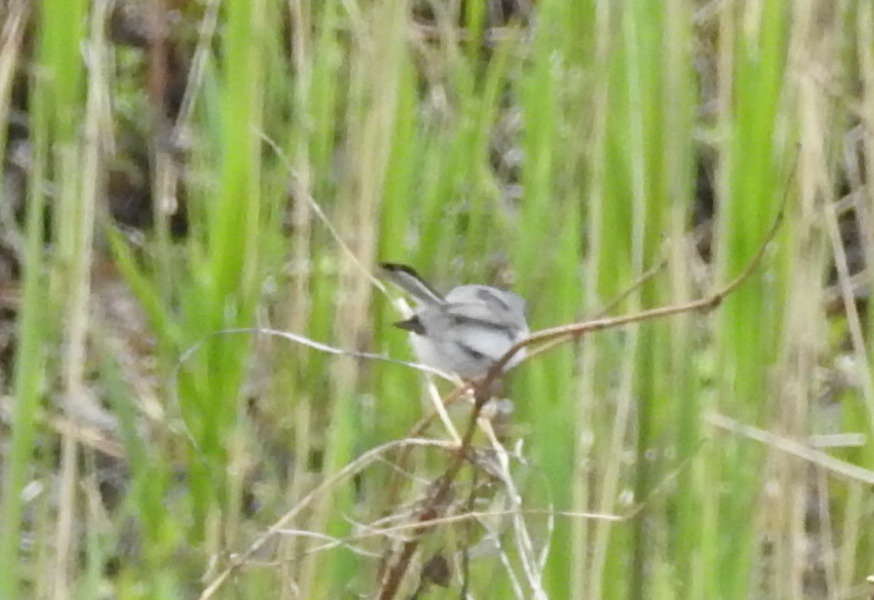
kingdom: Animalia
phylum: Chordata
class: Aves
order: Passeriformes
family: Polioptilidae
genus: Polioptila
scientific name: Polioptila caerulea
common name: Blue-gray gnatcatcher
